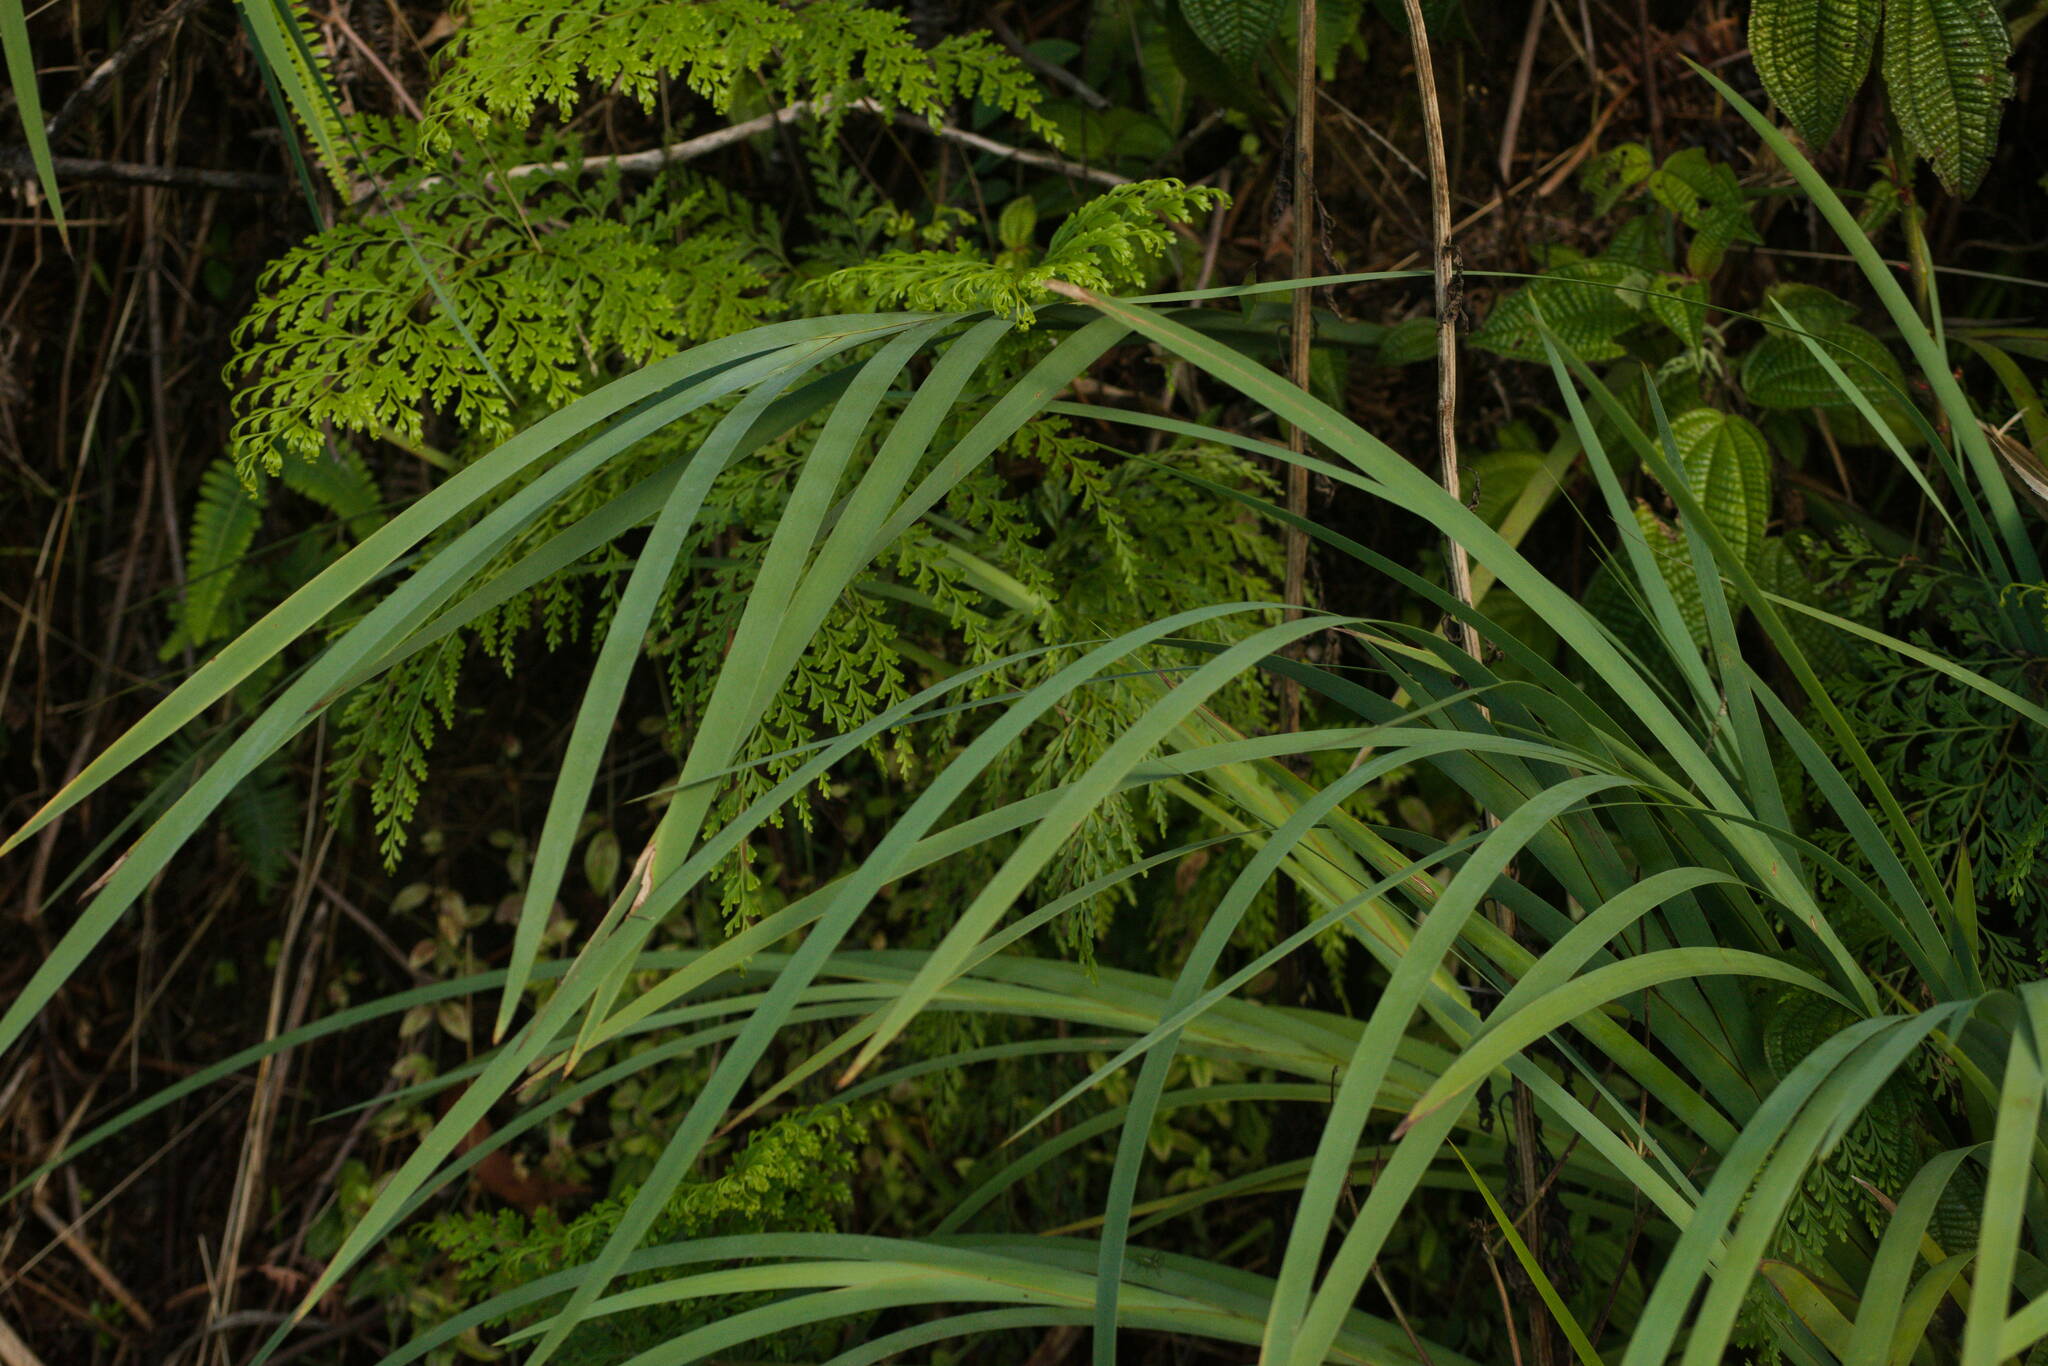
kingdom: Plantae
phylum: Tracheophyta
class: Liliopsida
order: Poales
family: Cyperaceae
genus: Machaerina
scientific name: Machaerina mariscoides
